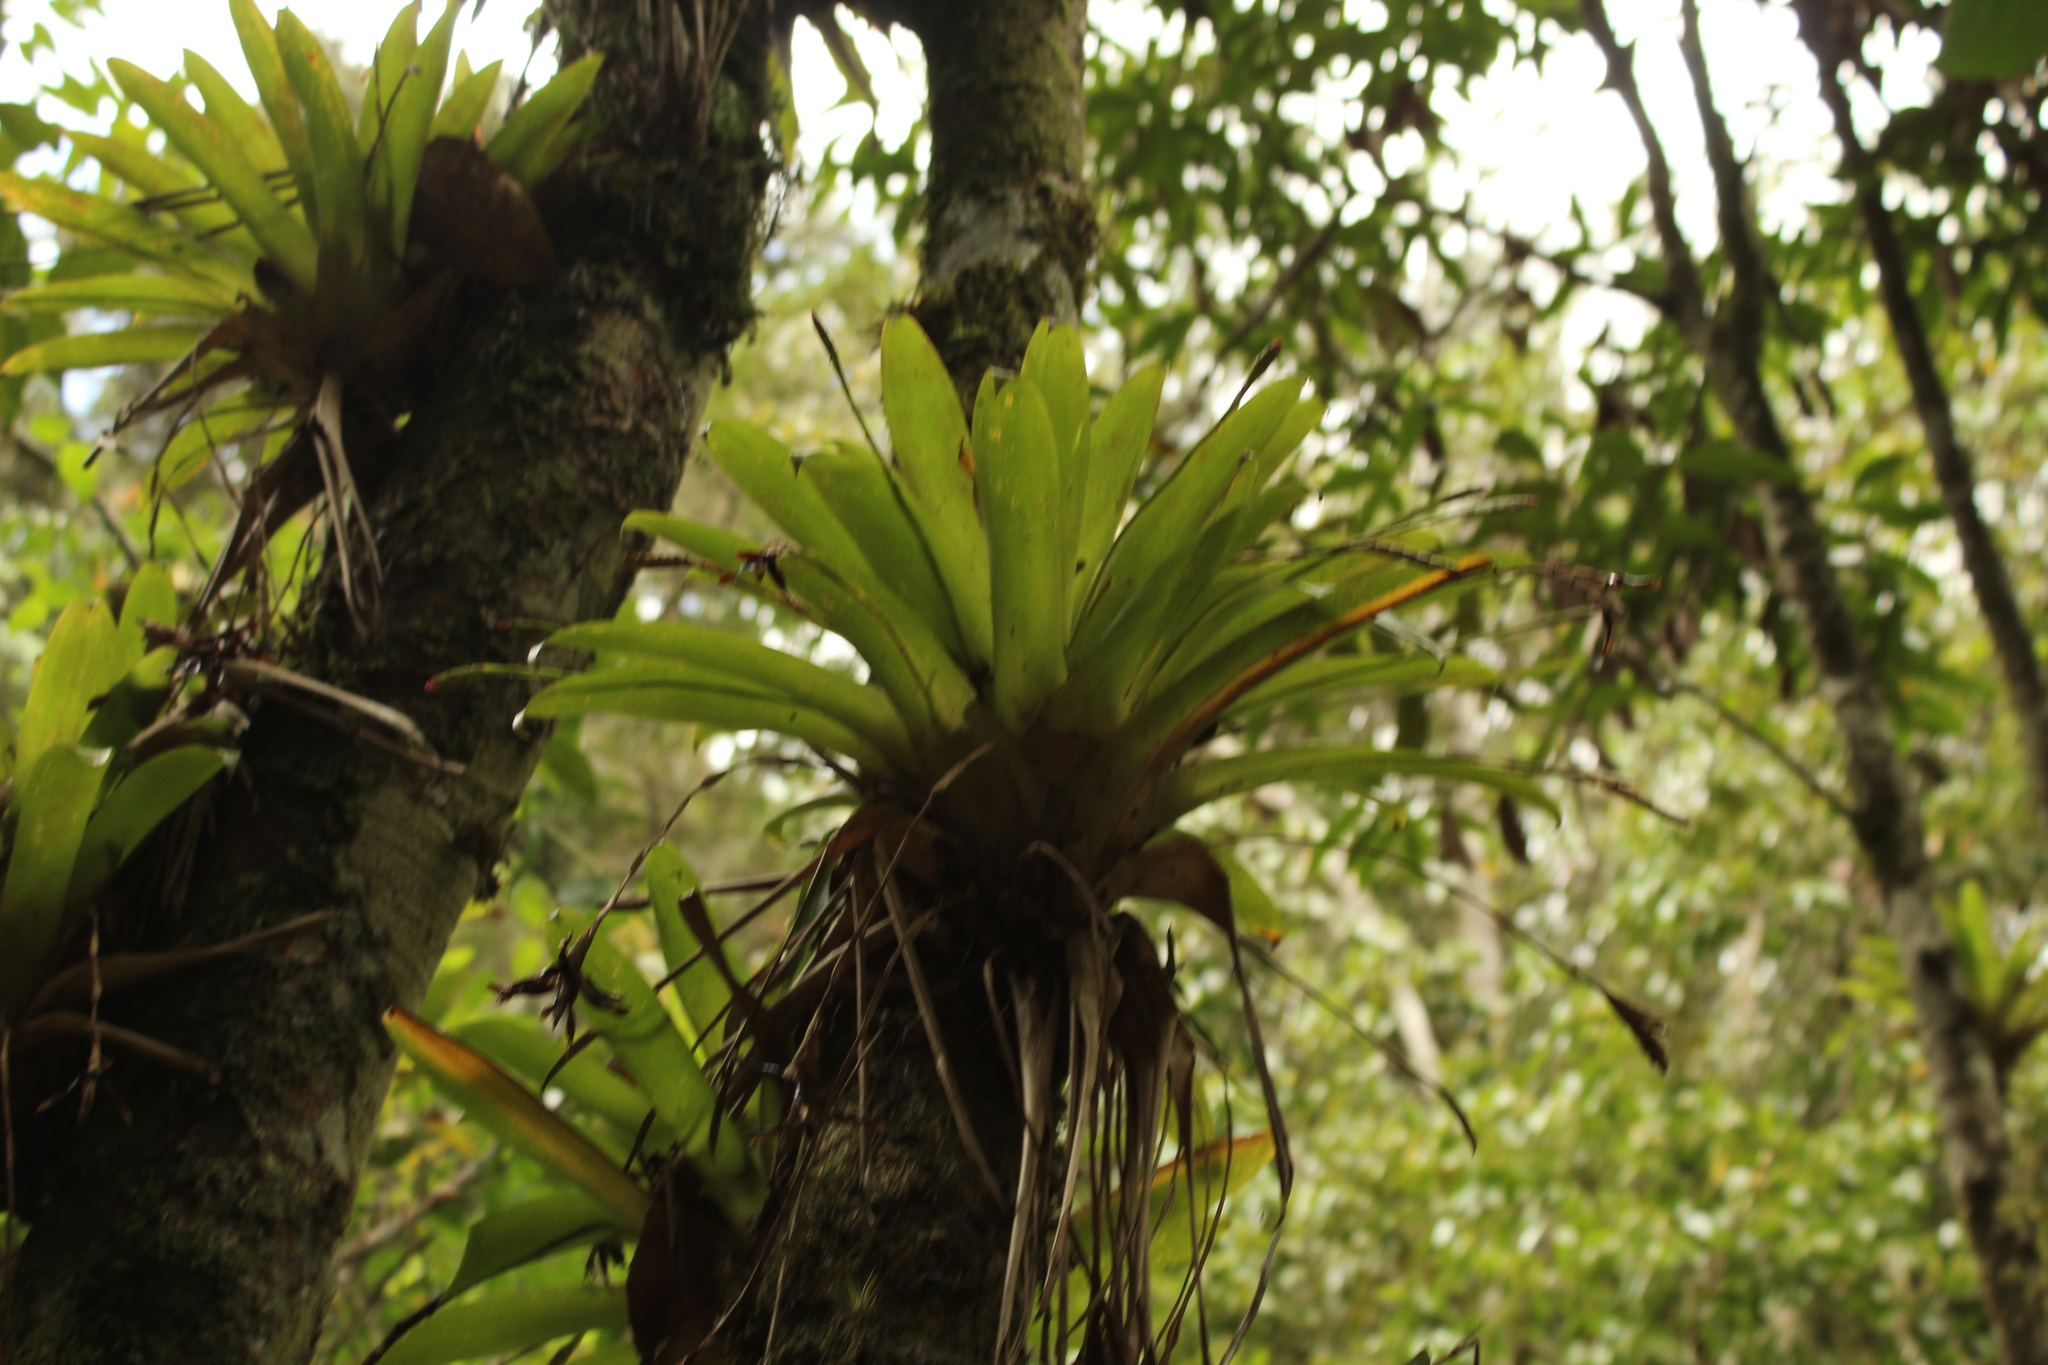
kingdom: Plantae
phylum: Tracheophyta
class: Liliopsida
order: Poales
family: Bromeliaceae
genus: Tillandsia
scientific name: Tillandsia complanata
